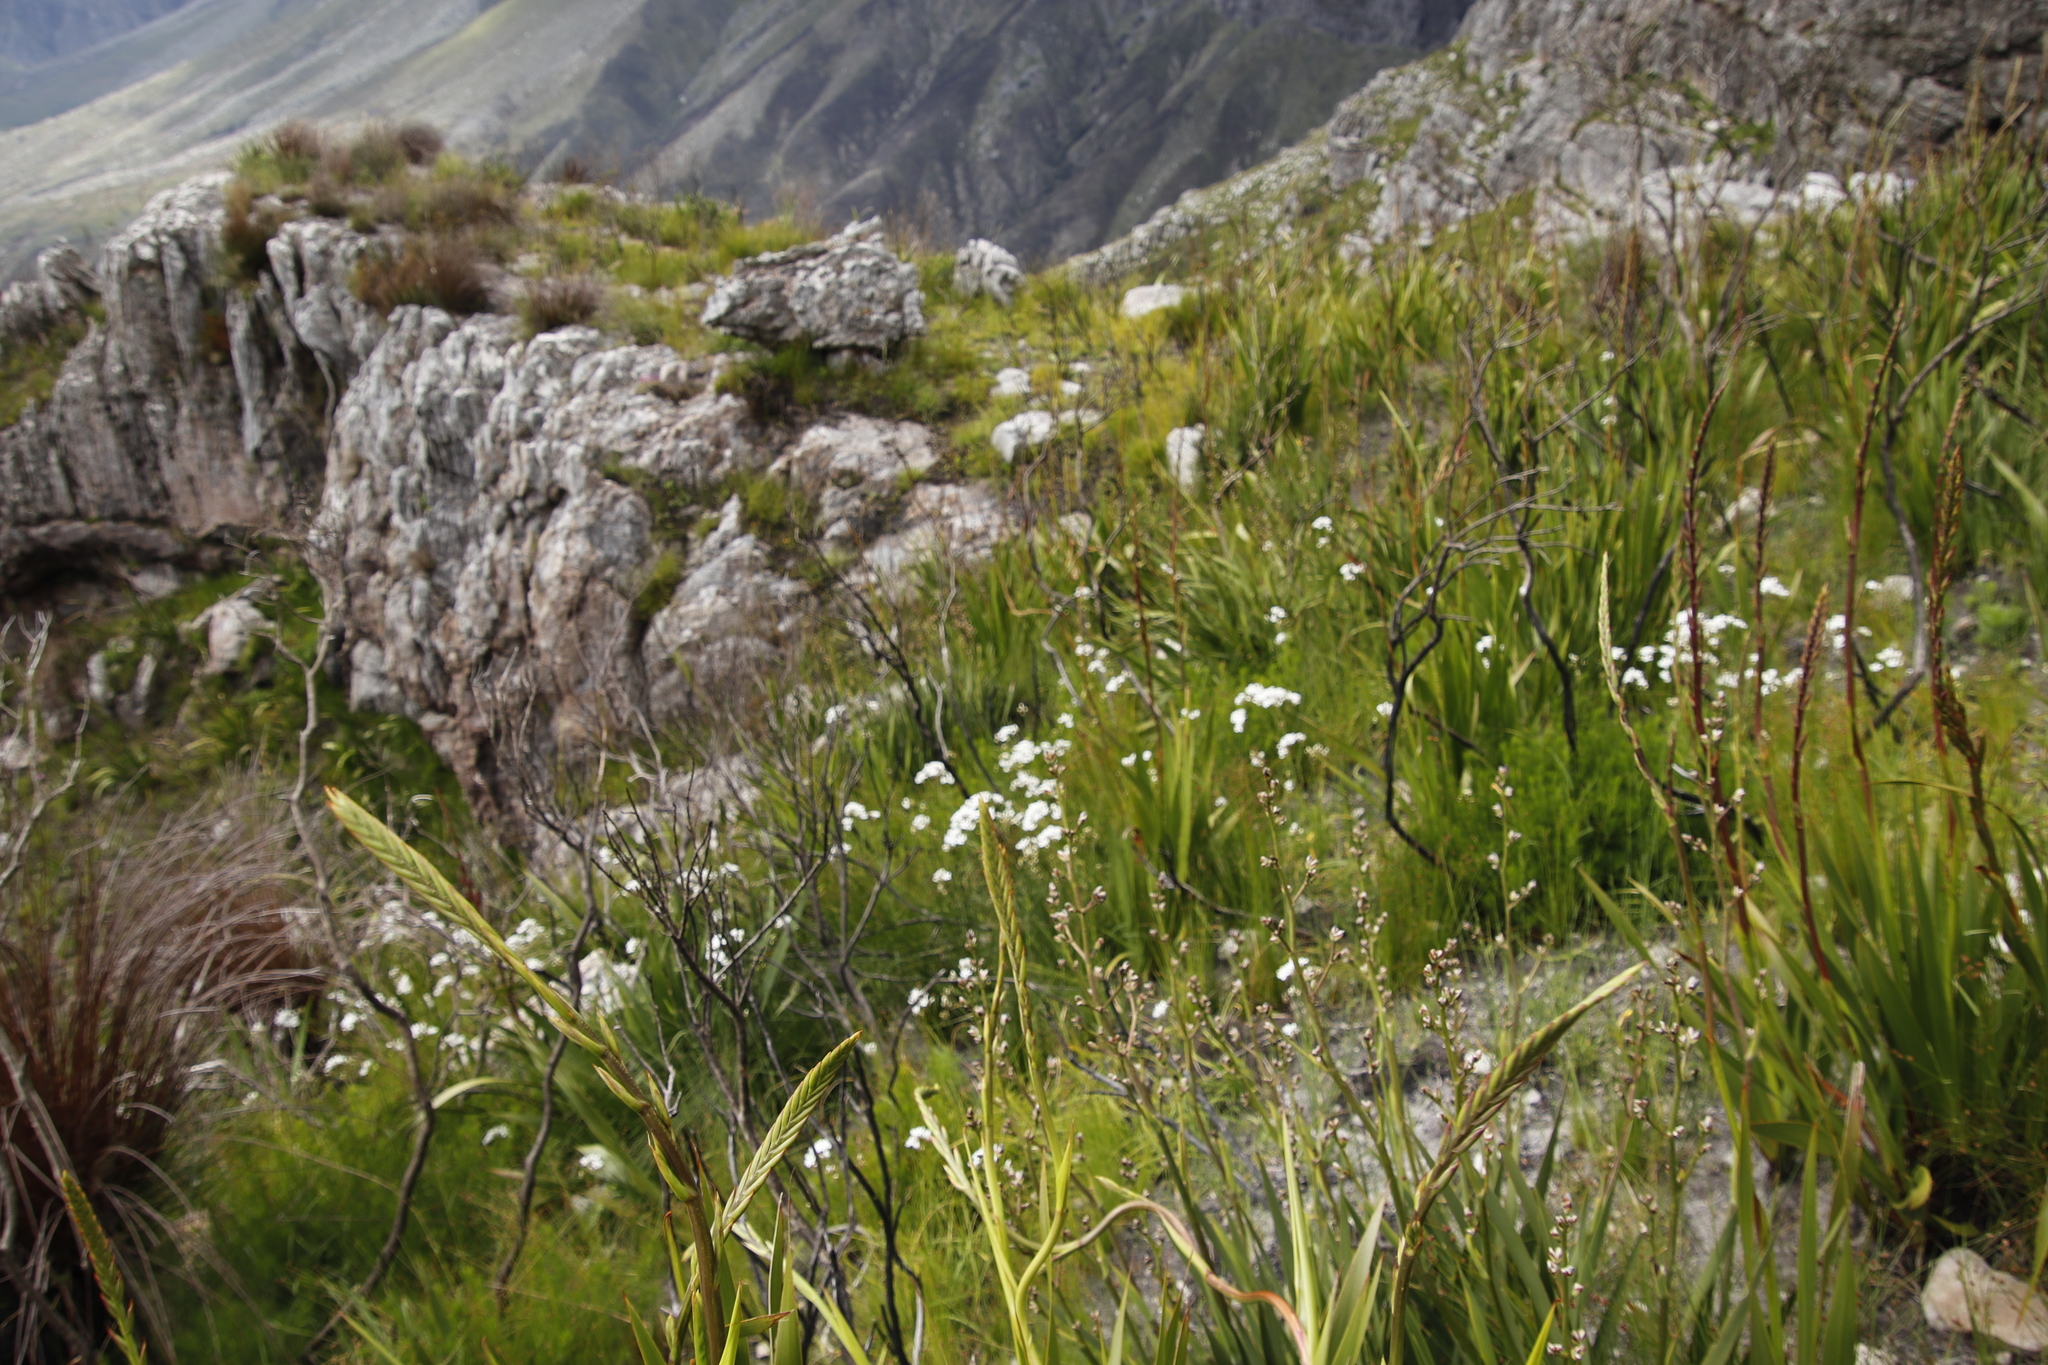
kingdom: Plantae
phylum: Tracheophyta
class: Liliopsida
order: Asparagales
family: Iridaceae
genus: Schizorhiza
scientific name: Schizorhiza neglecta
